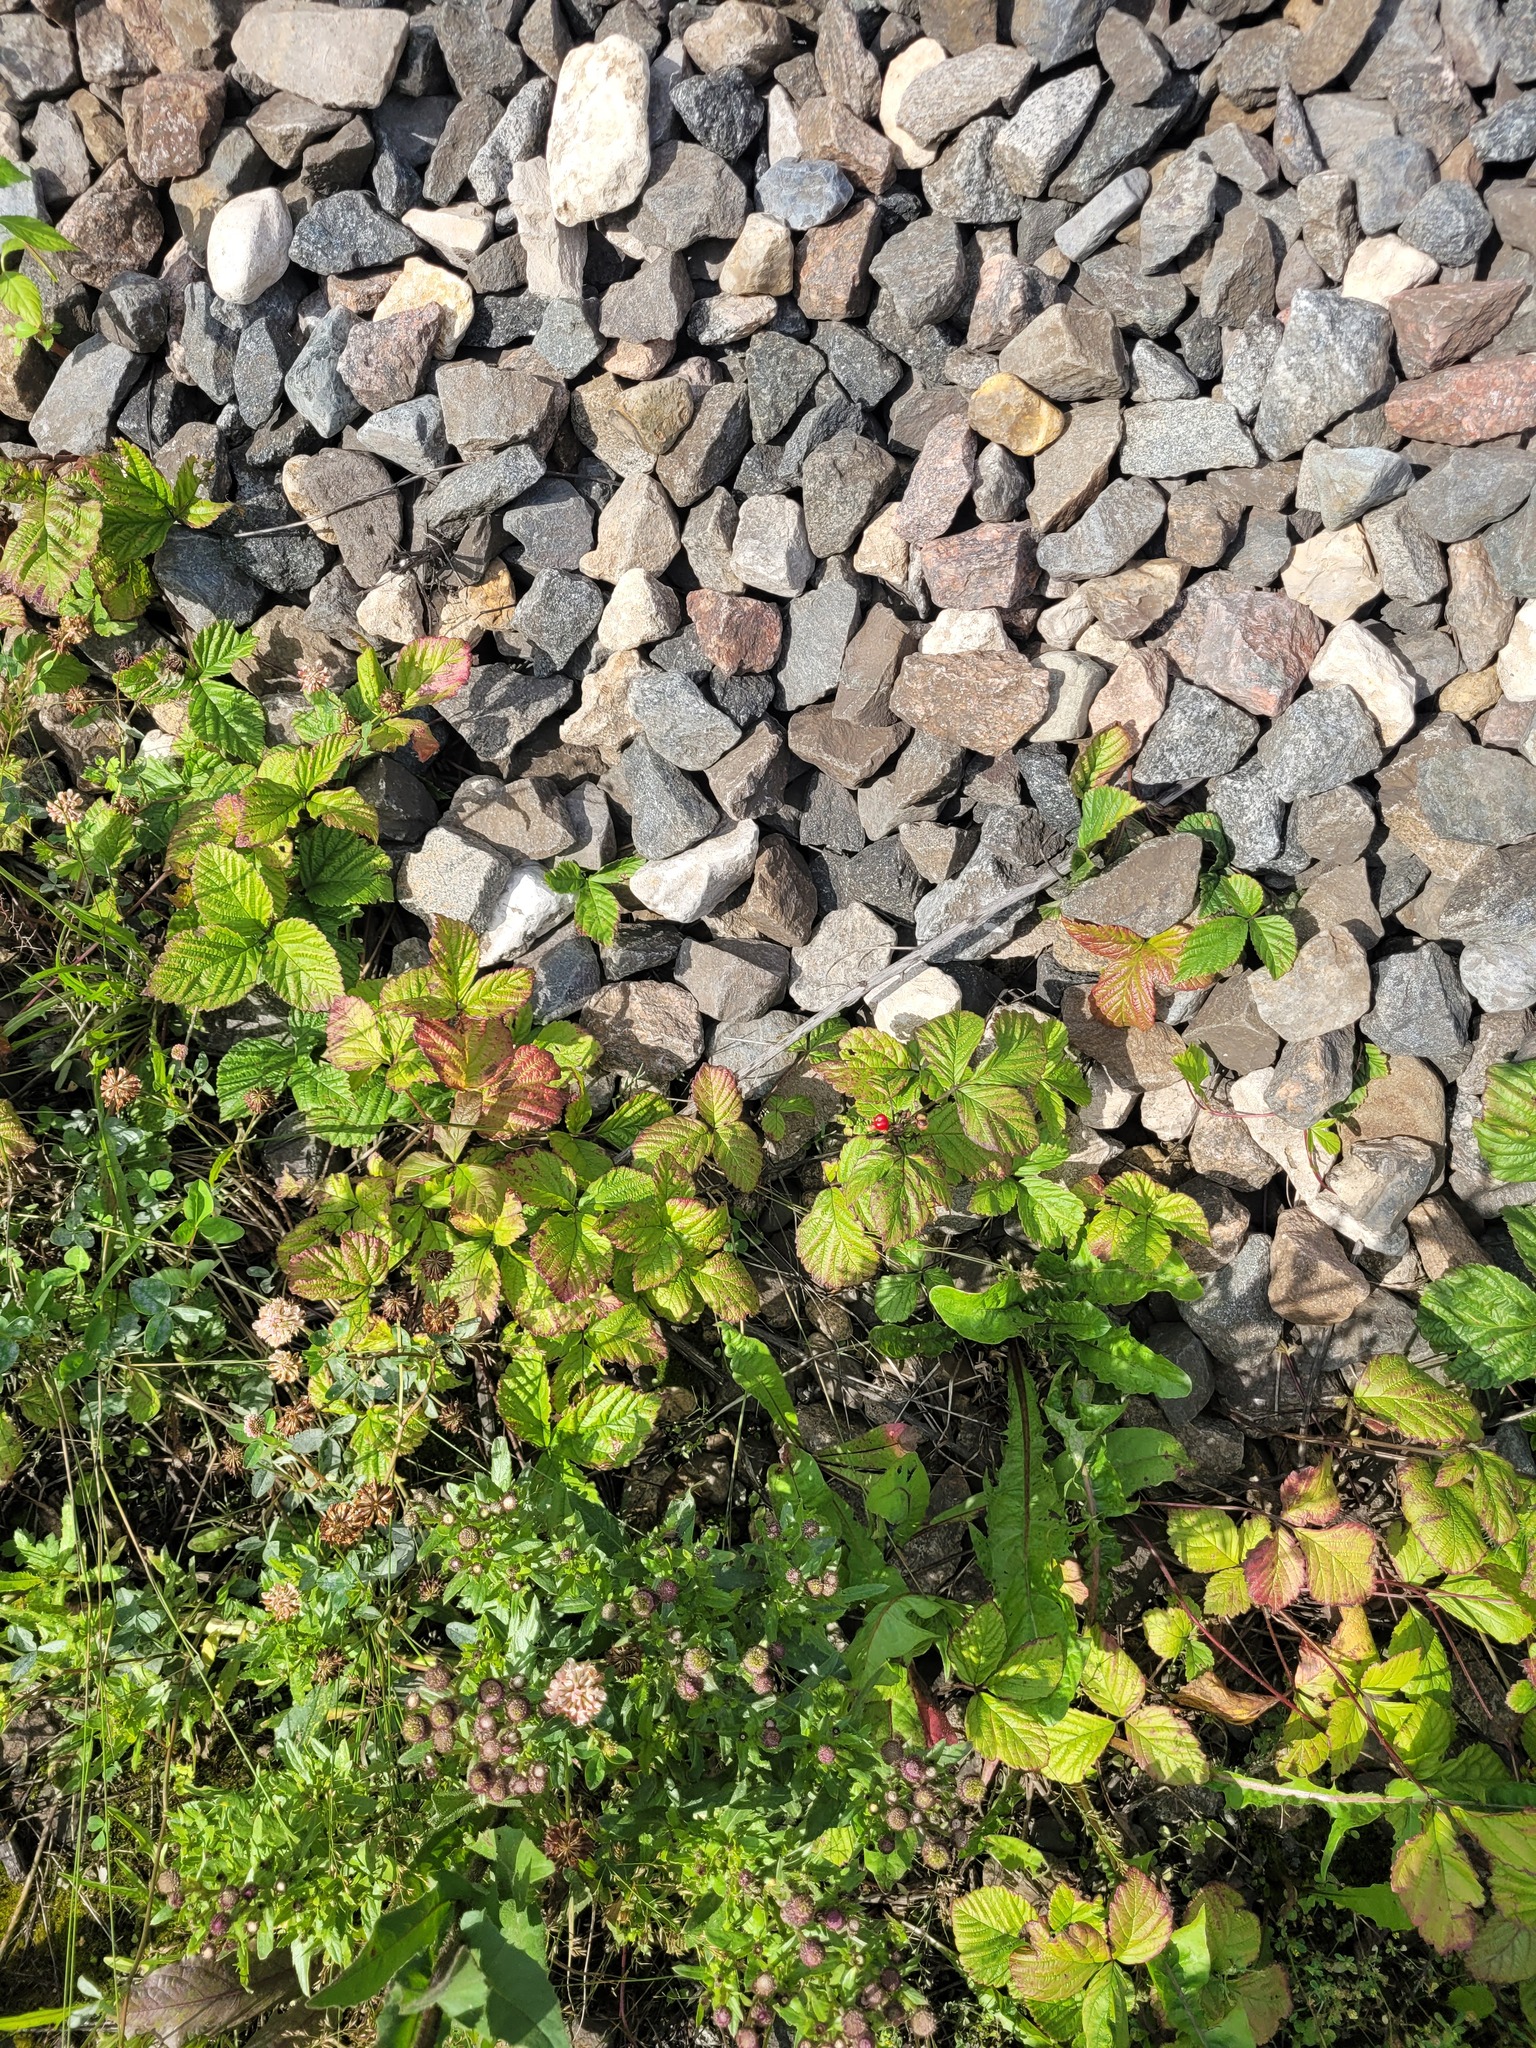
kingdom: Plantae
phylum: Tracheophyta
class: Magnoliopsida
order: Rosales
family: Rosaceae
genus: Rubus
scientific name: Rubus saxatilis
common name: Stone bramble
